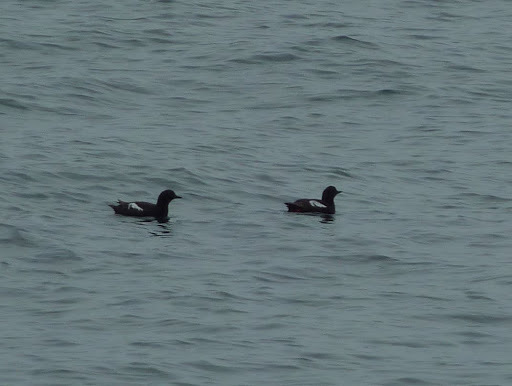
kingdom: Animalia
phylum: Chordata
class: Aves
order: Charadriiformes
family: Alcidae
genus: Cepphus
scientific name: Cepphus columba
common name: Pigeon guillemot
